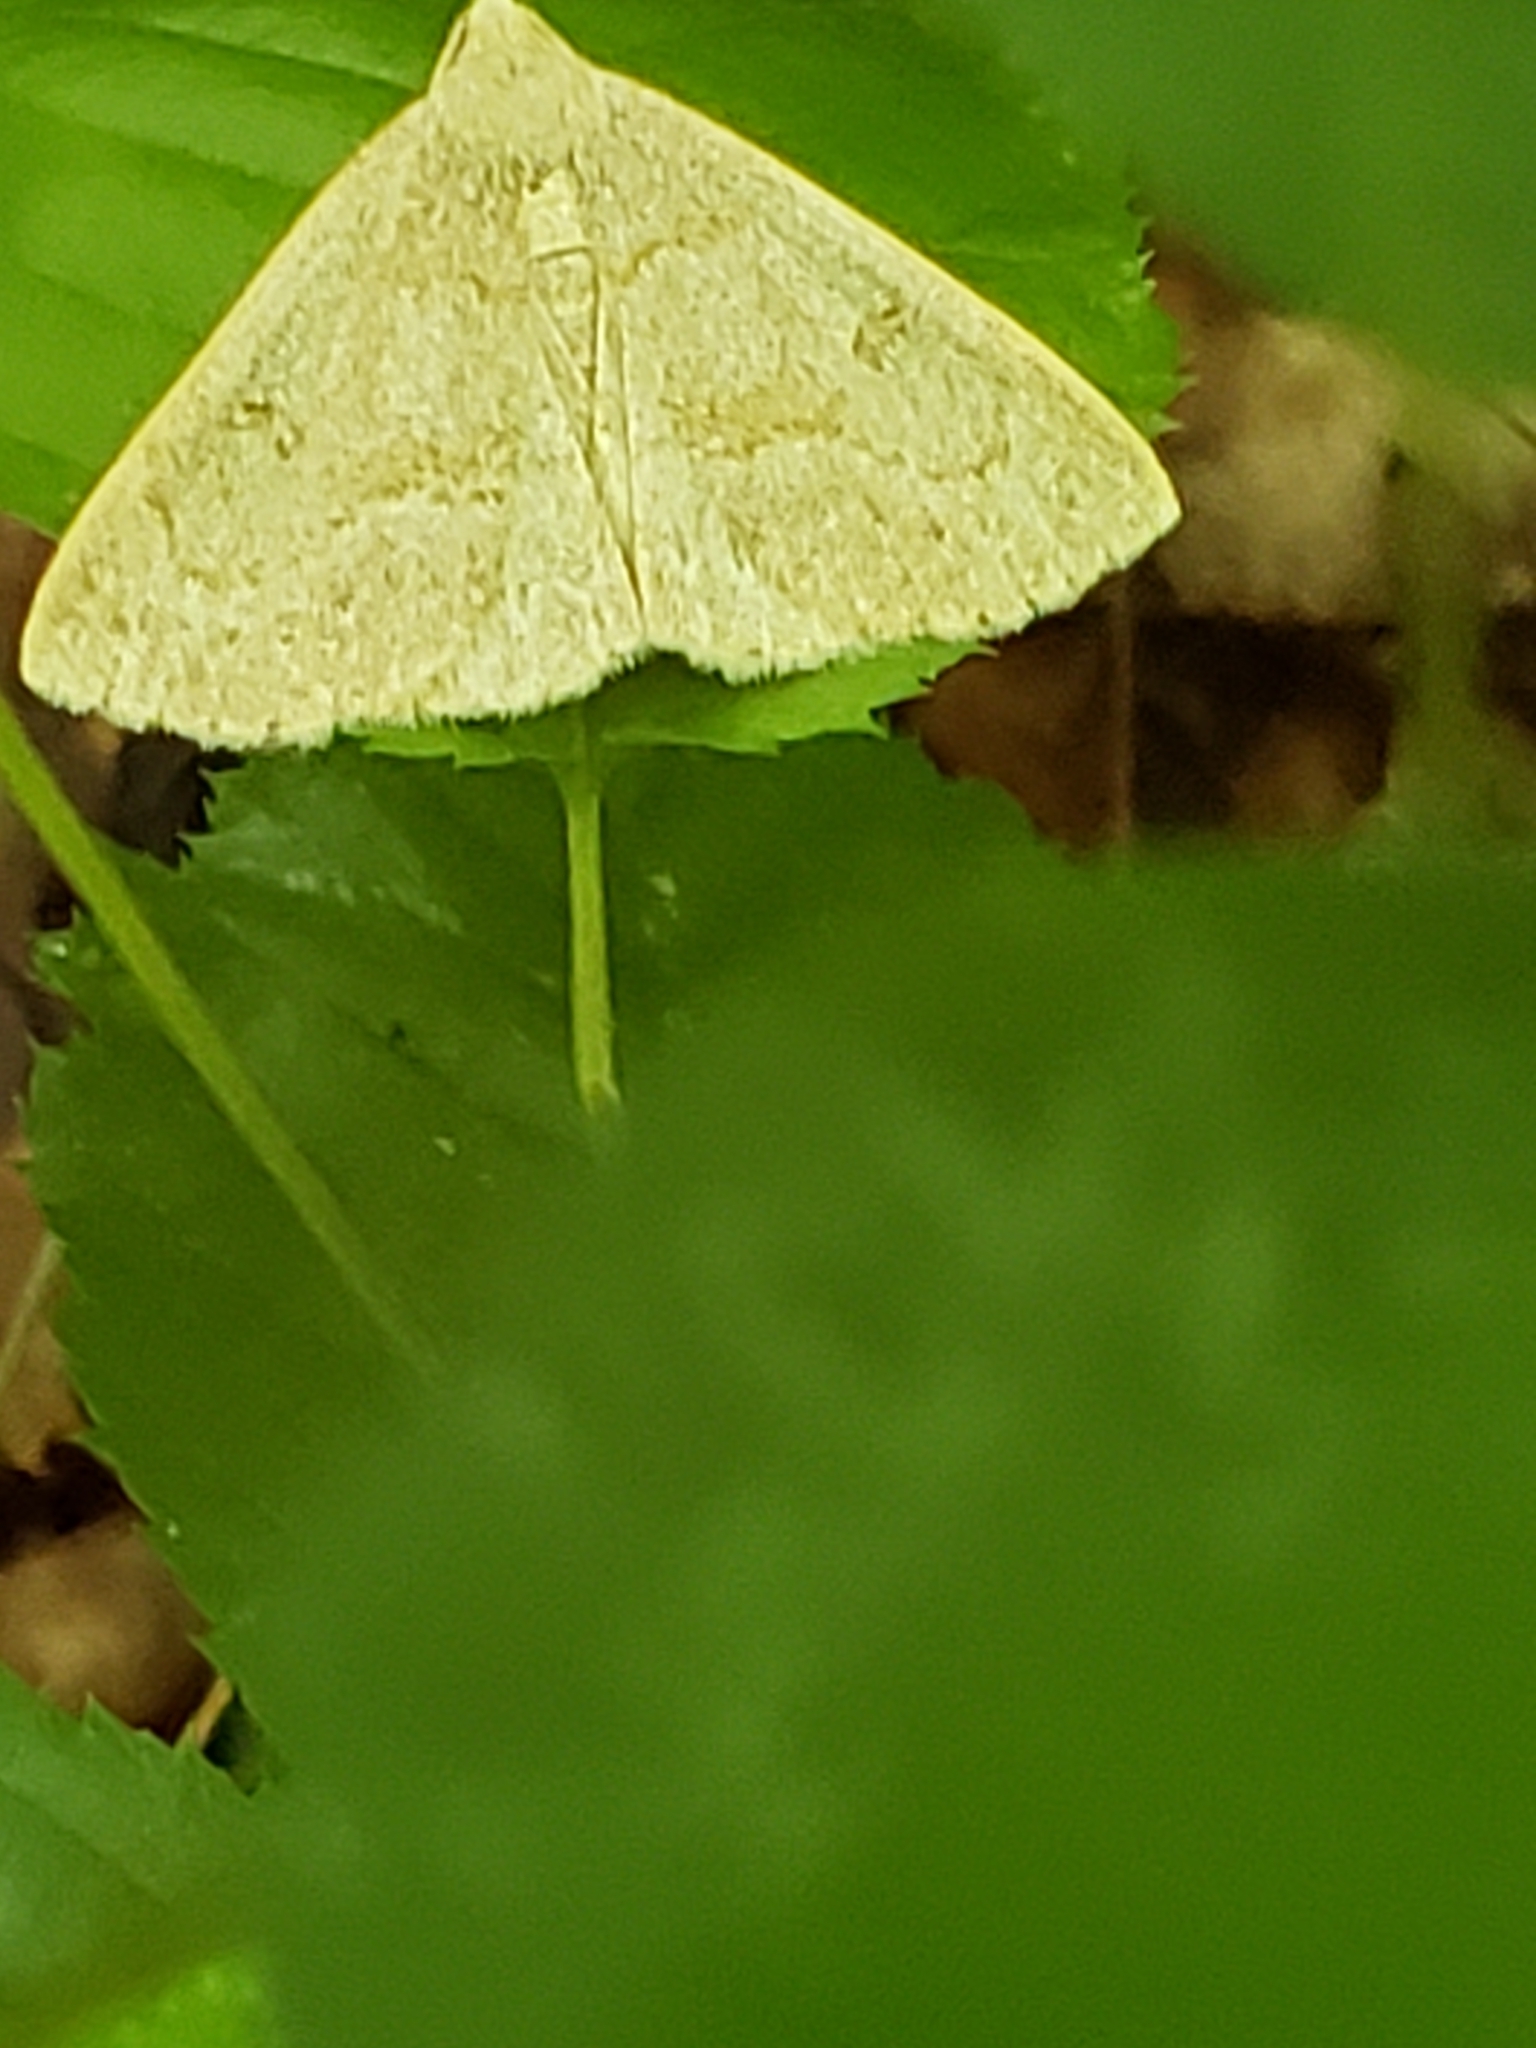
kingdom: Animalia
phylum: Arthropoda
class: Insecta
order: Lepidoptera
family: Erebidae
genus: Macrochilo
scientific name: Macrochilo morbidalis
